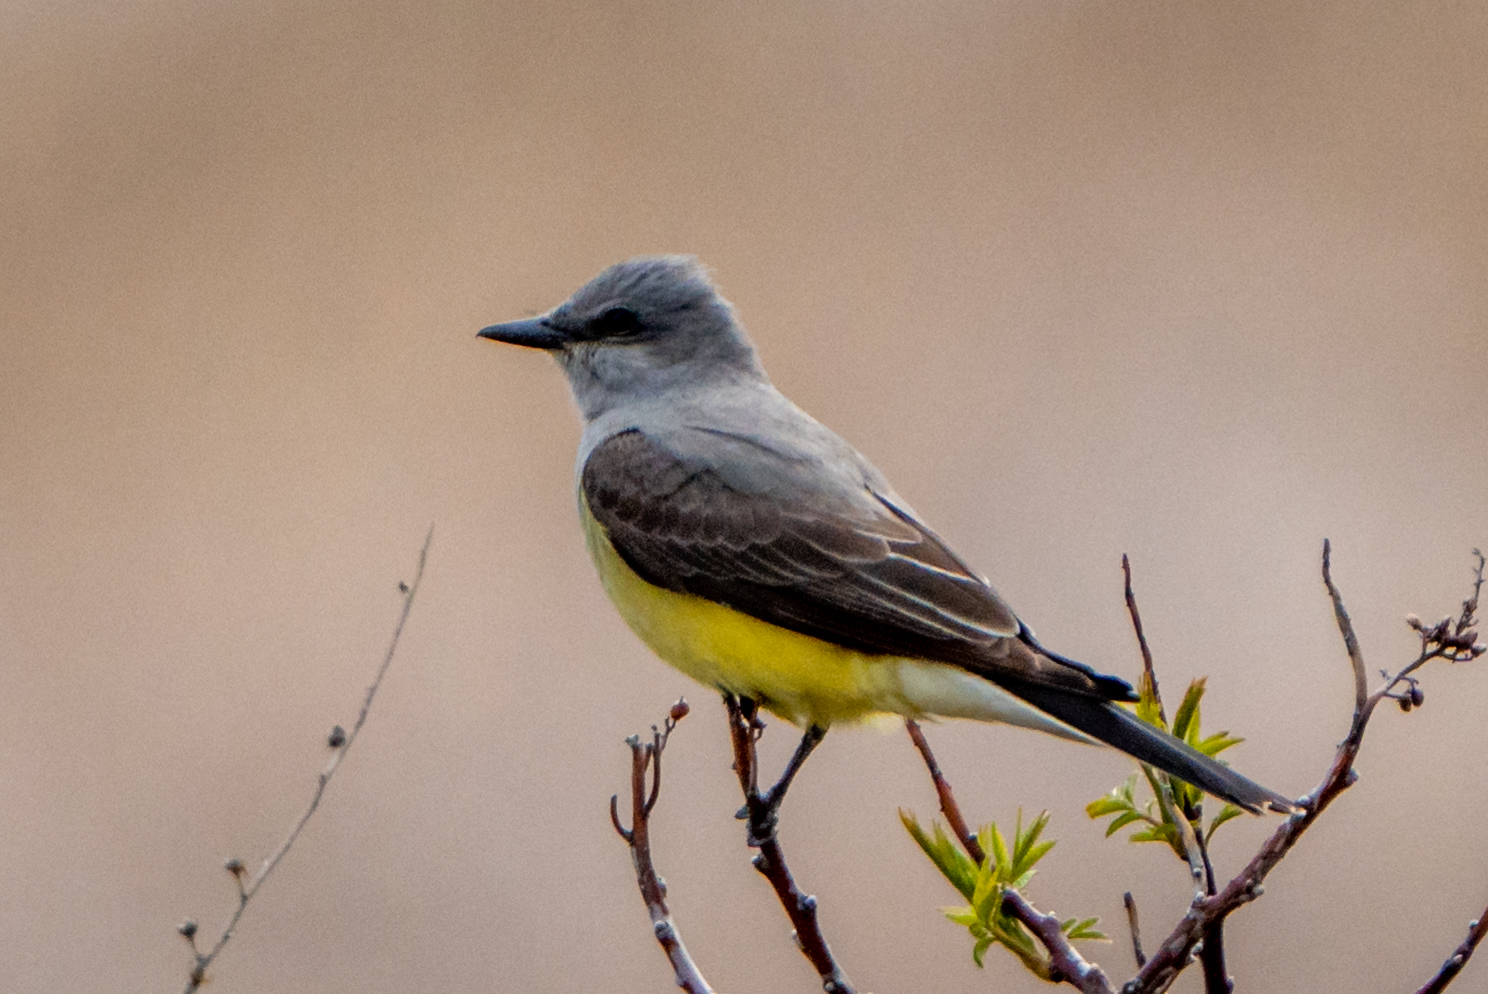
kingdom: Animalia
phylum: Chordata
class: Aves
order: Passeriformes
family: Tyrannidae
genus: Tyrannus
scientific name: Tyrannus verticalis
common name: Western kingbird
